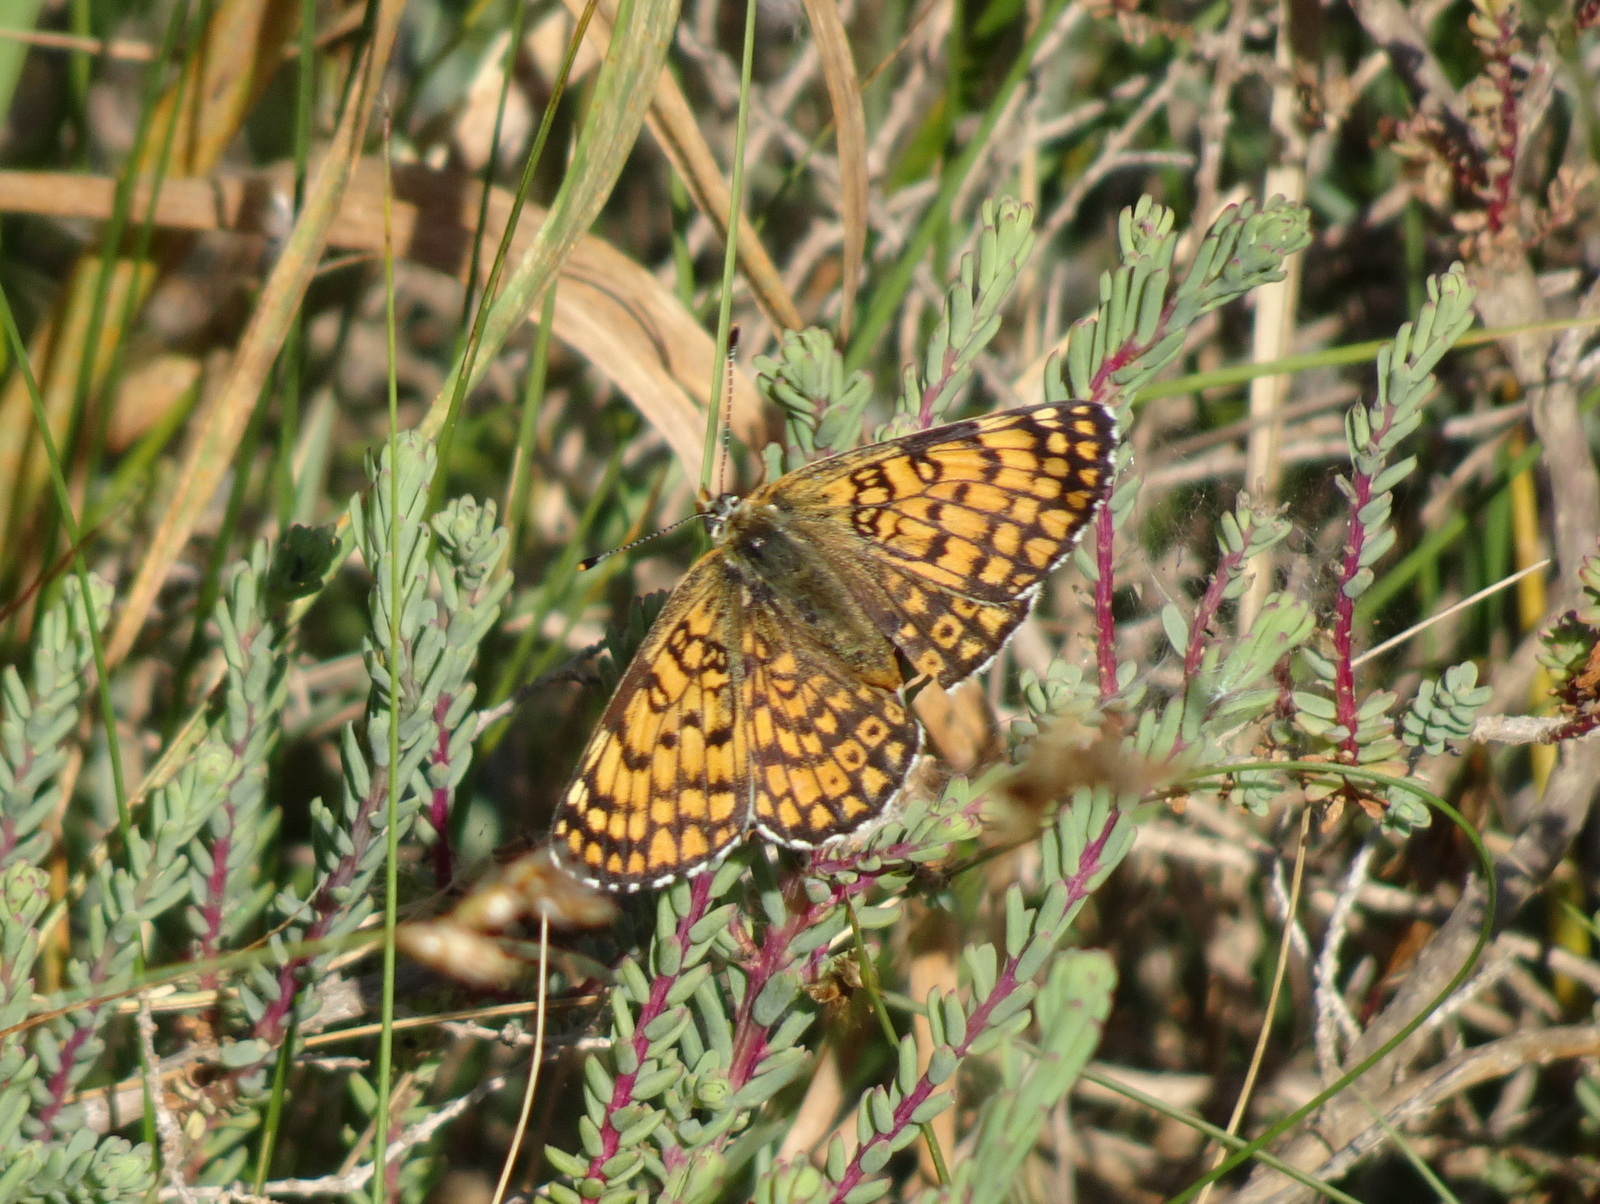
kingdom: Animalia
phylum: Arthropoda
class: Insecta
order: Lepidoptera
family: Nymphalidae
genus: Melitaea
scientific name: Melitaea cinxia
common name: Glanville fritillary
